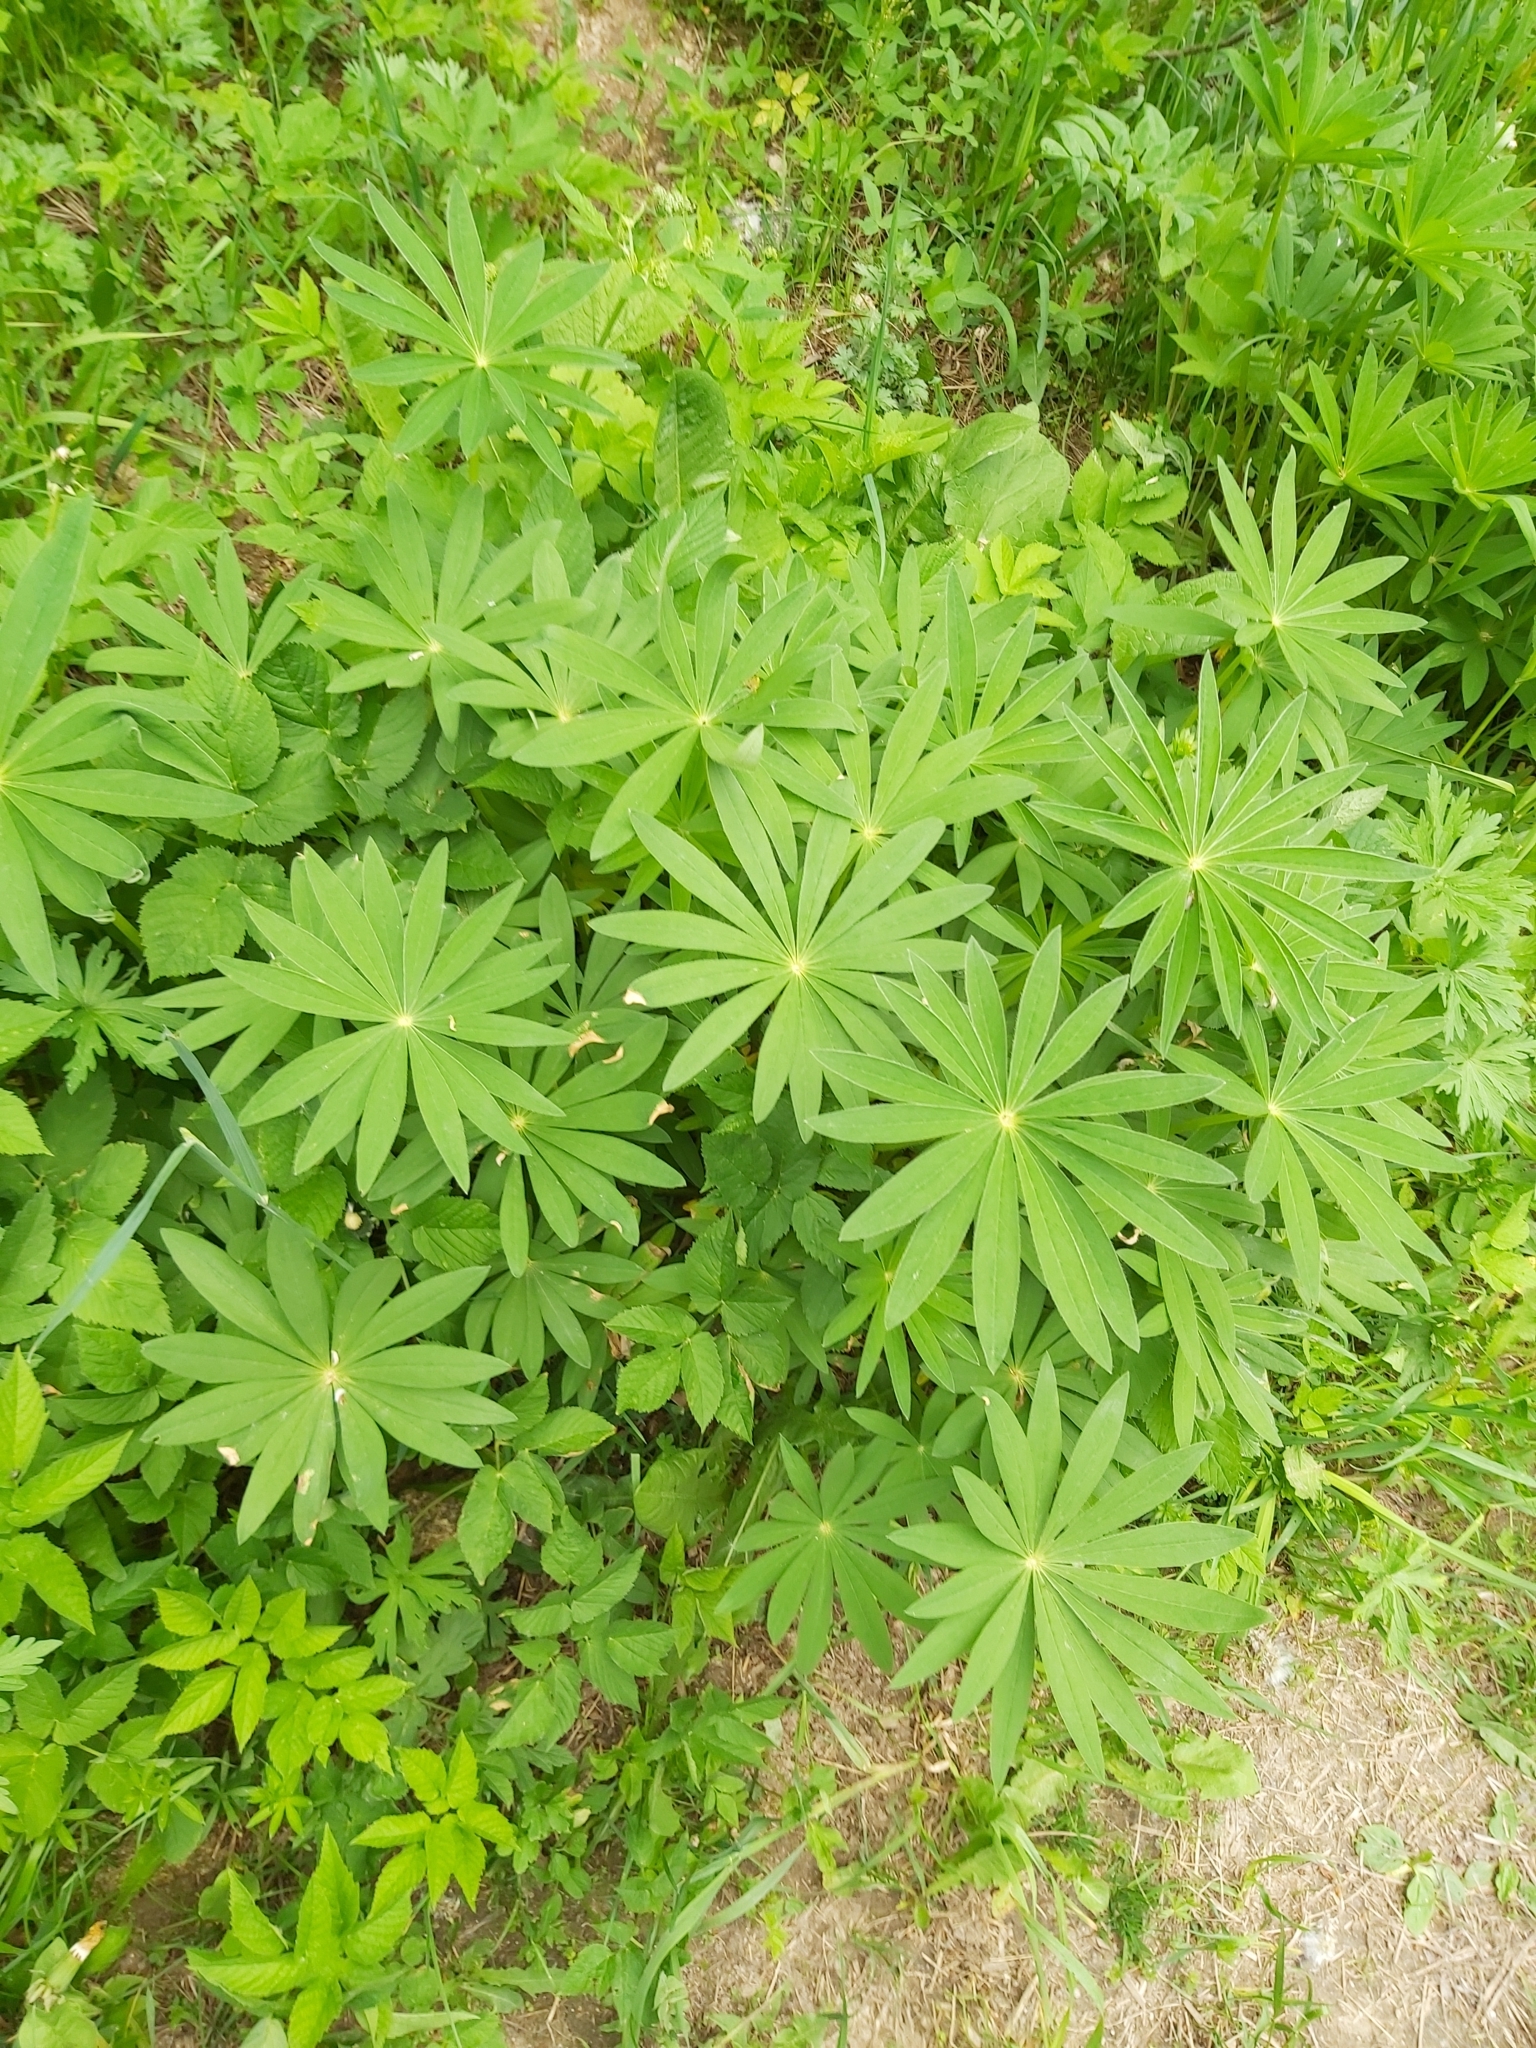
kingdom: Plantae
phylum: Tracheophyta
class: Magnoliopsida
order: Fabales
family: Fabaceae
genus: Lupinus
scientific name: Lupinus polyphyllus
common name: Garden lupin
